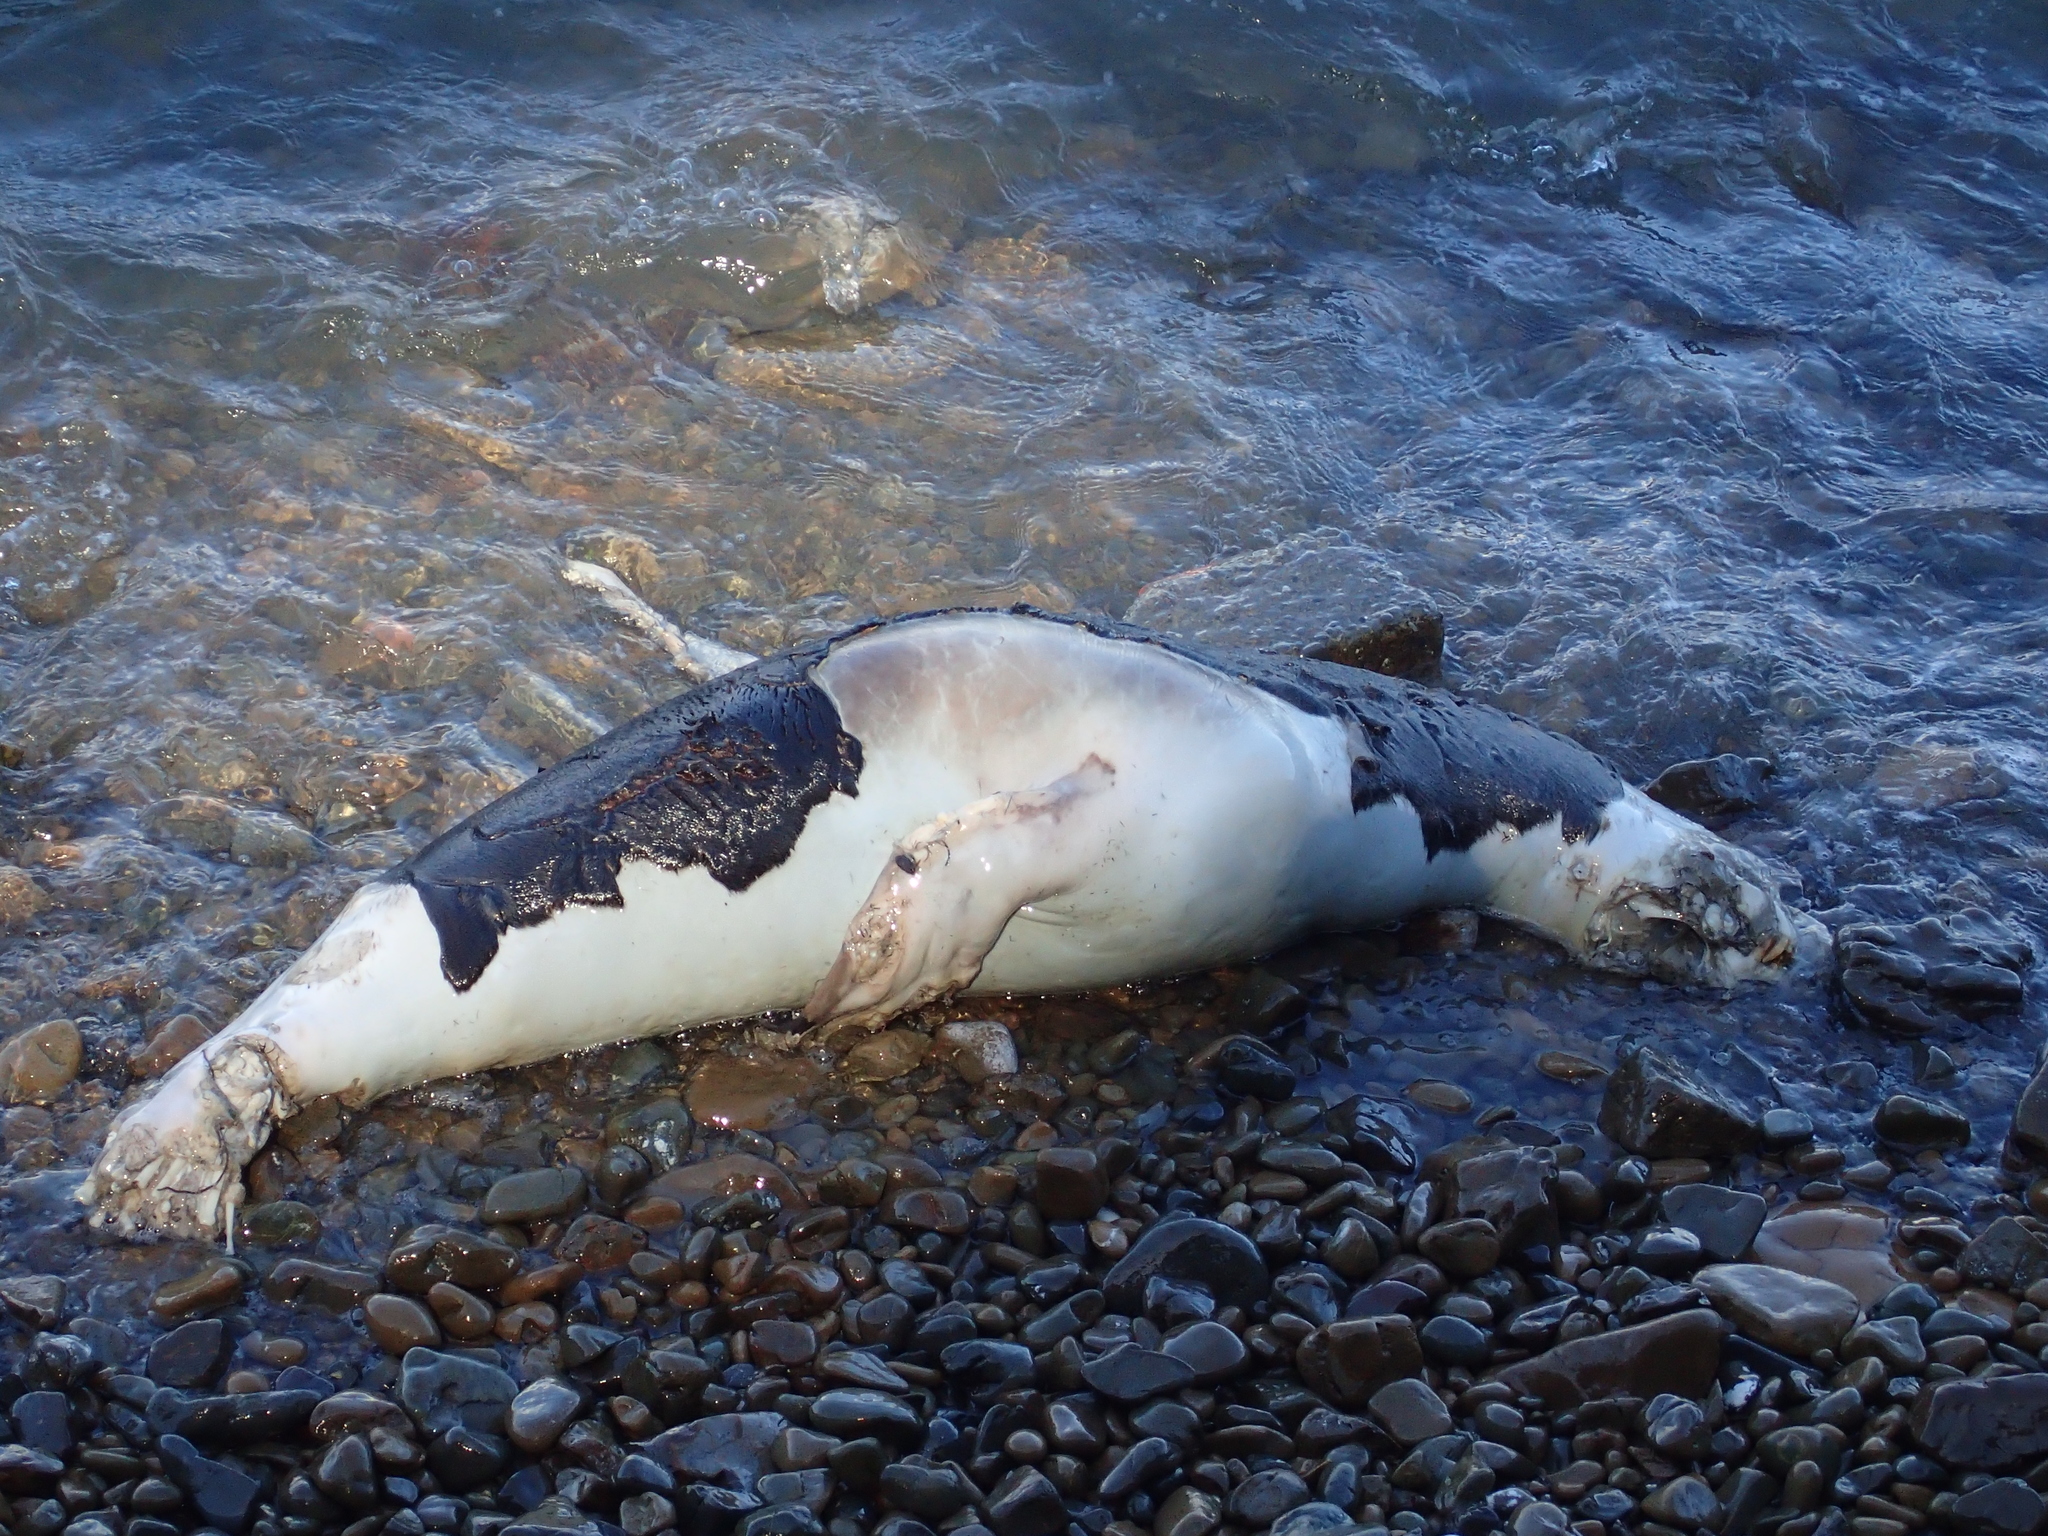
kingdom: Animalia
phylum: Chordata
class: Mammalia
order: Carnivora
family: Otariidae
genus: Arctocephalus
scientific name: Arctocephalus forsteri
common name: New zealand fur seal
